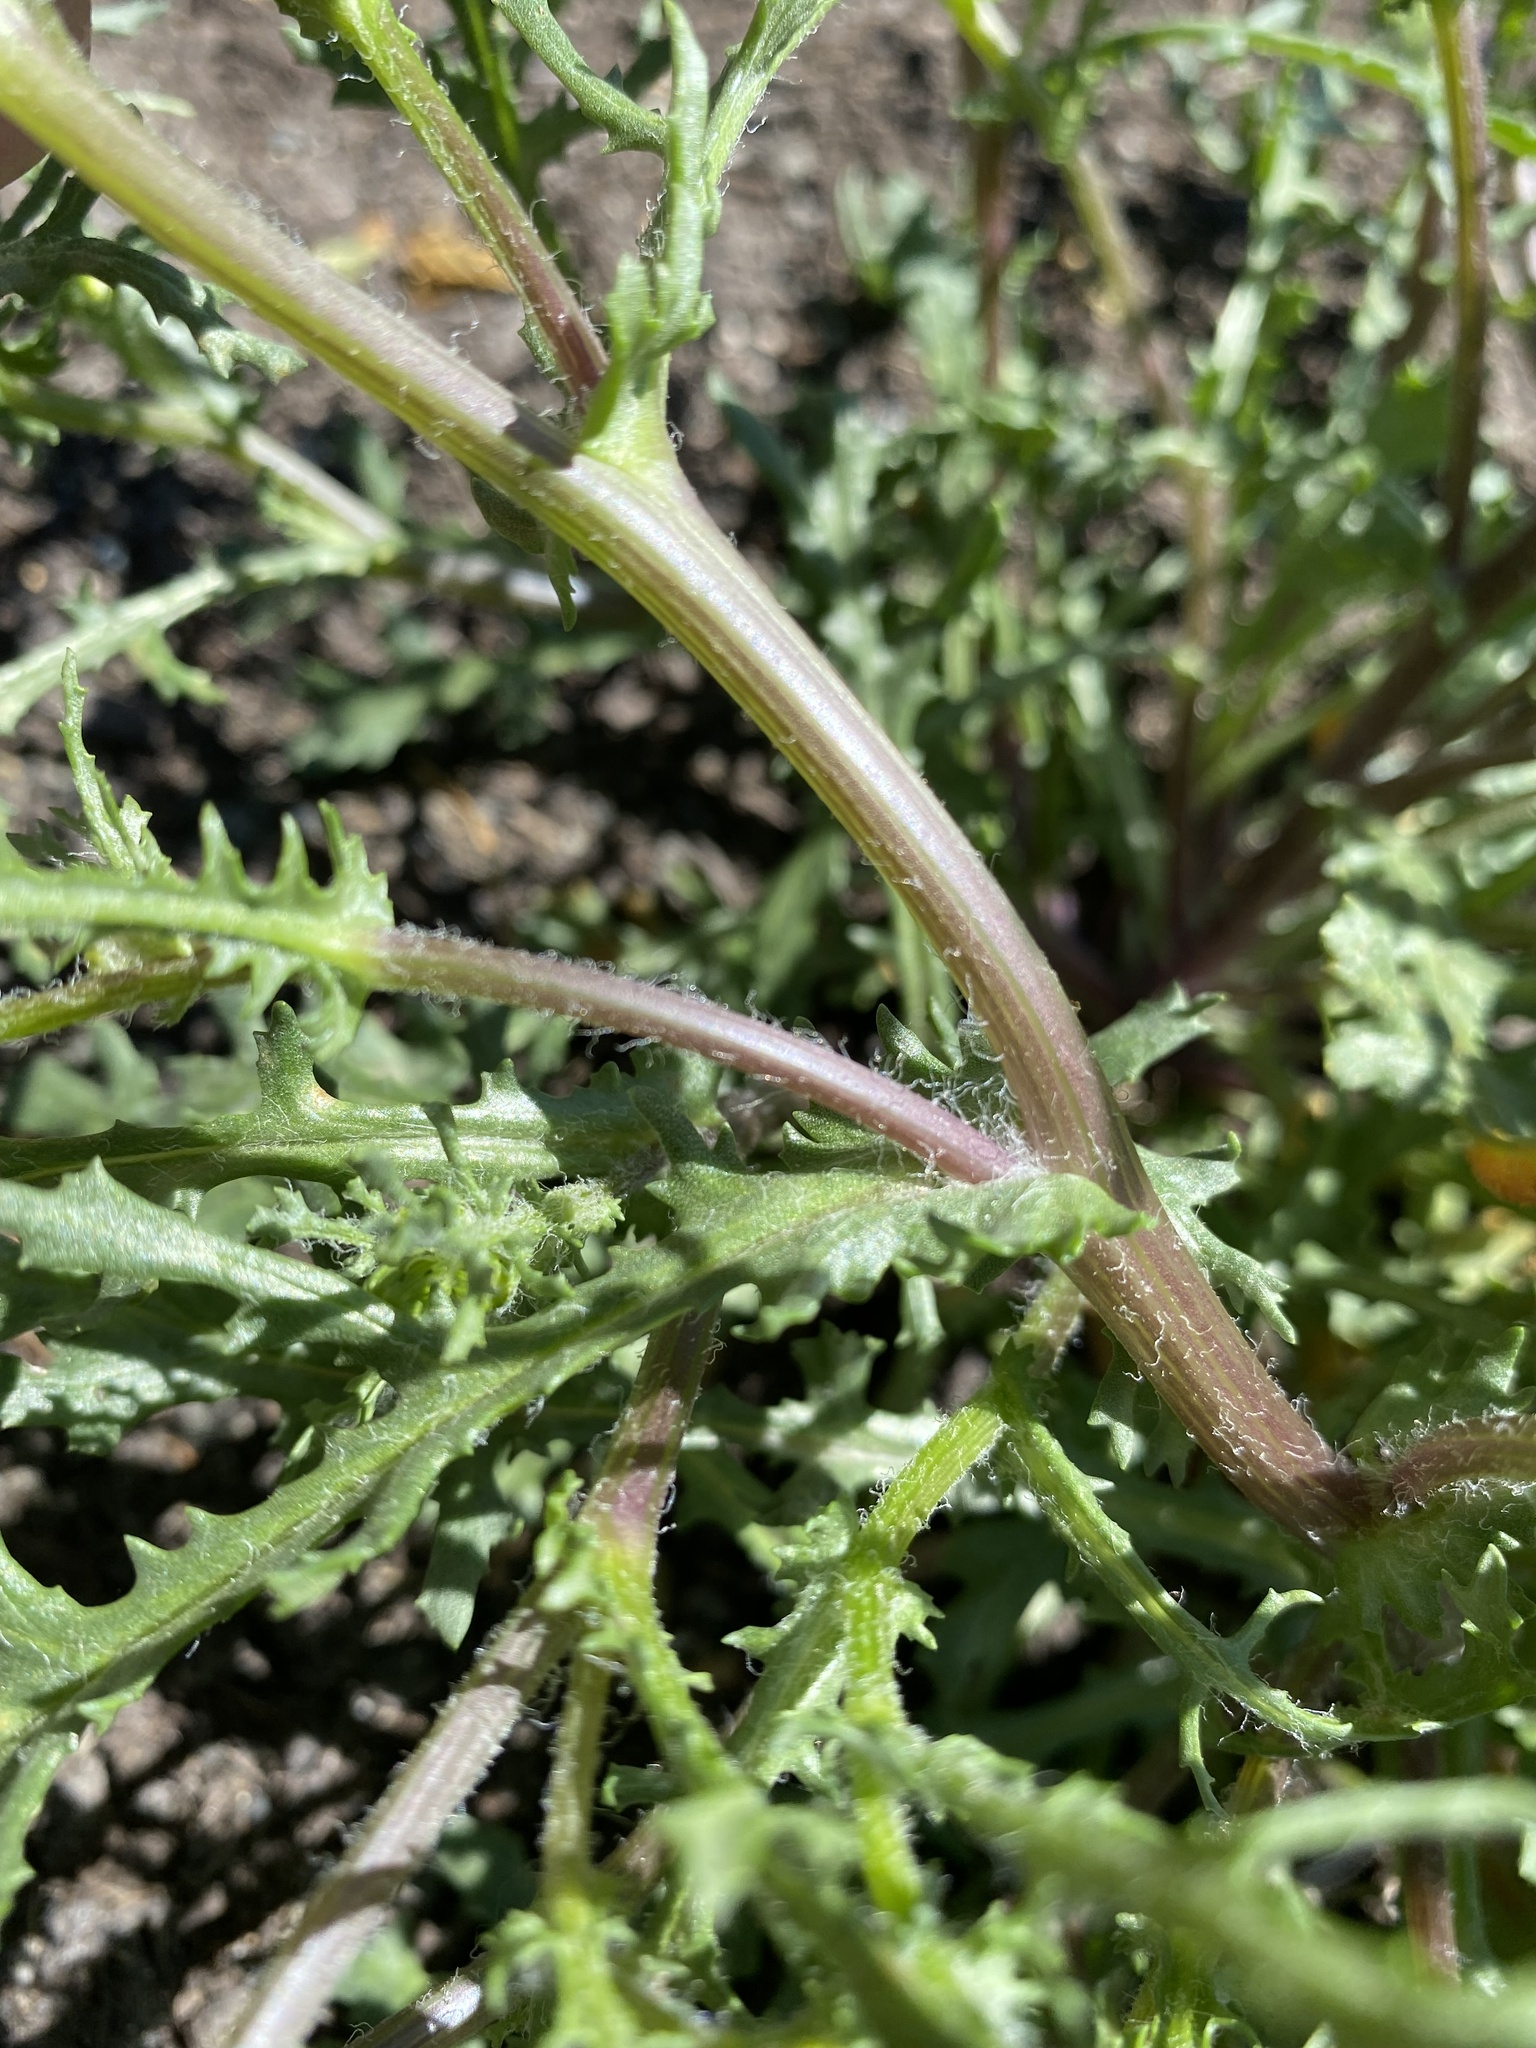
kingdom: Plantae
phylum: Tracheophyta
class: Magnoliopsida
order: Asterales
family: Asteraceae
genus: Senecio
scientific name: Senecio vulgaris
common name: Old-man-in-the-spring
